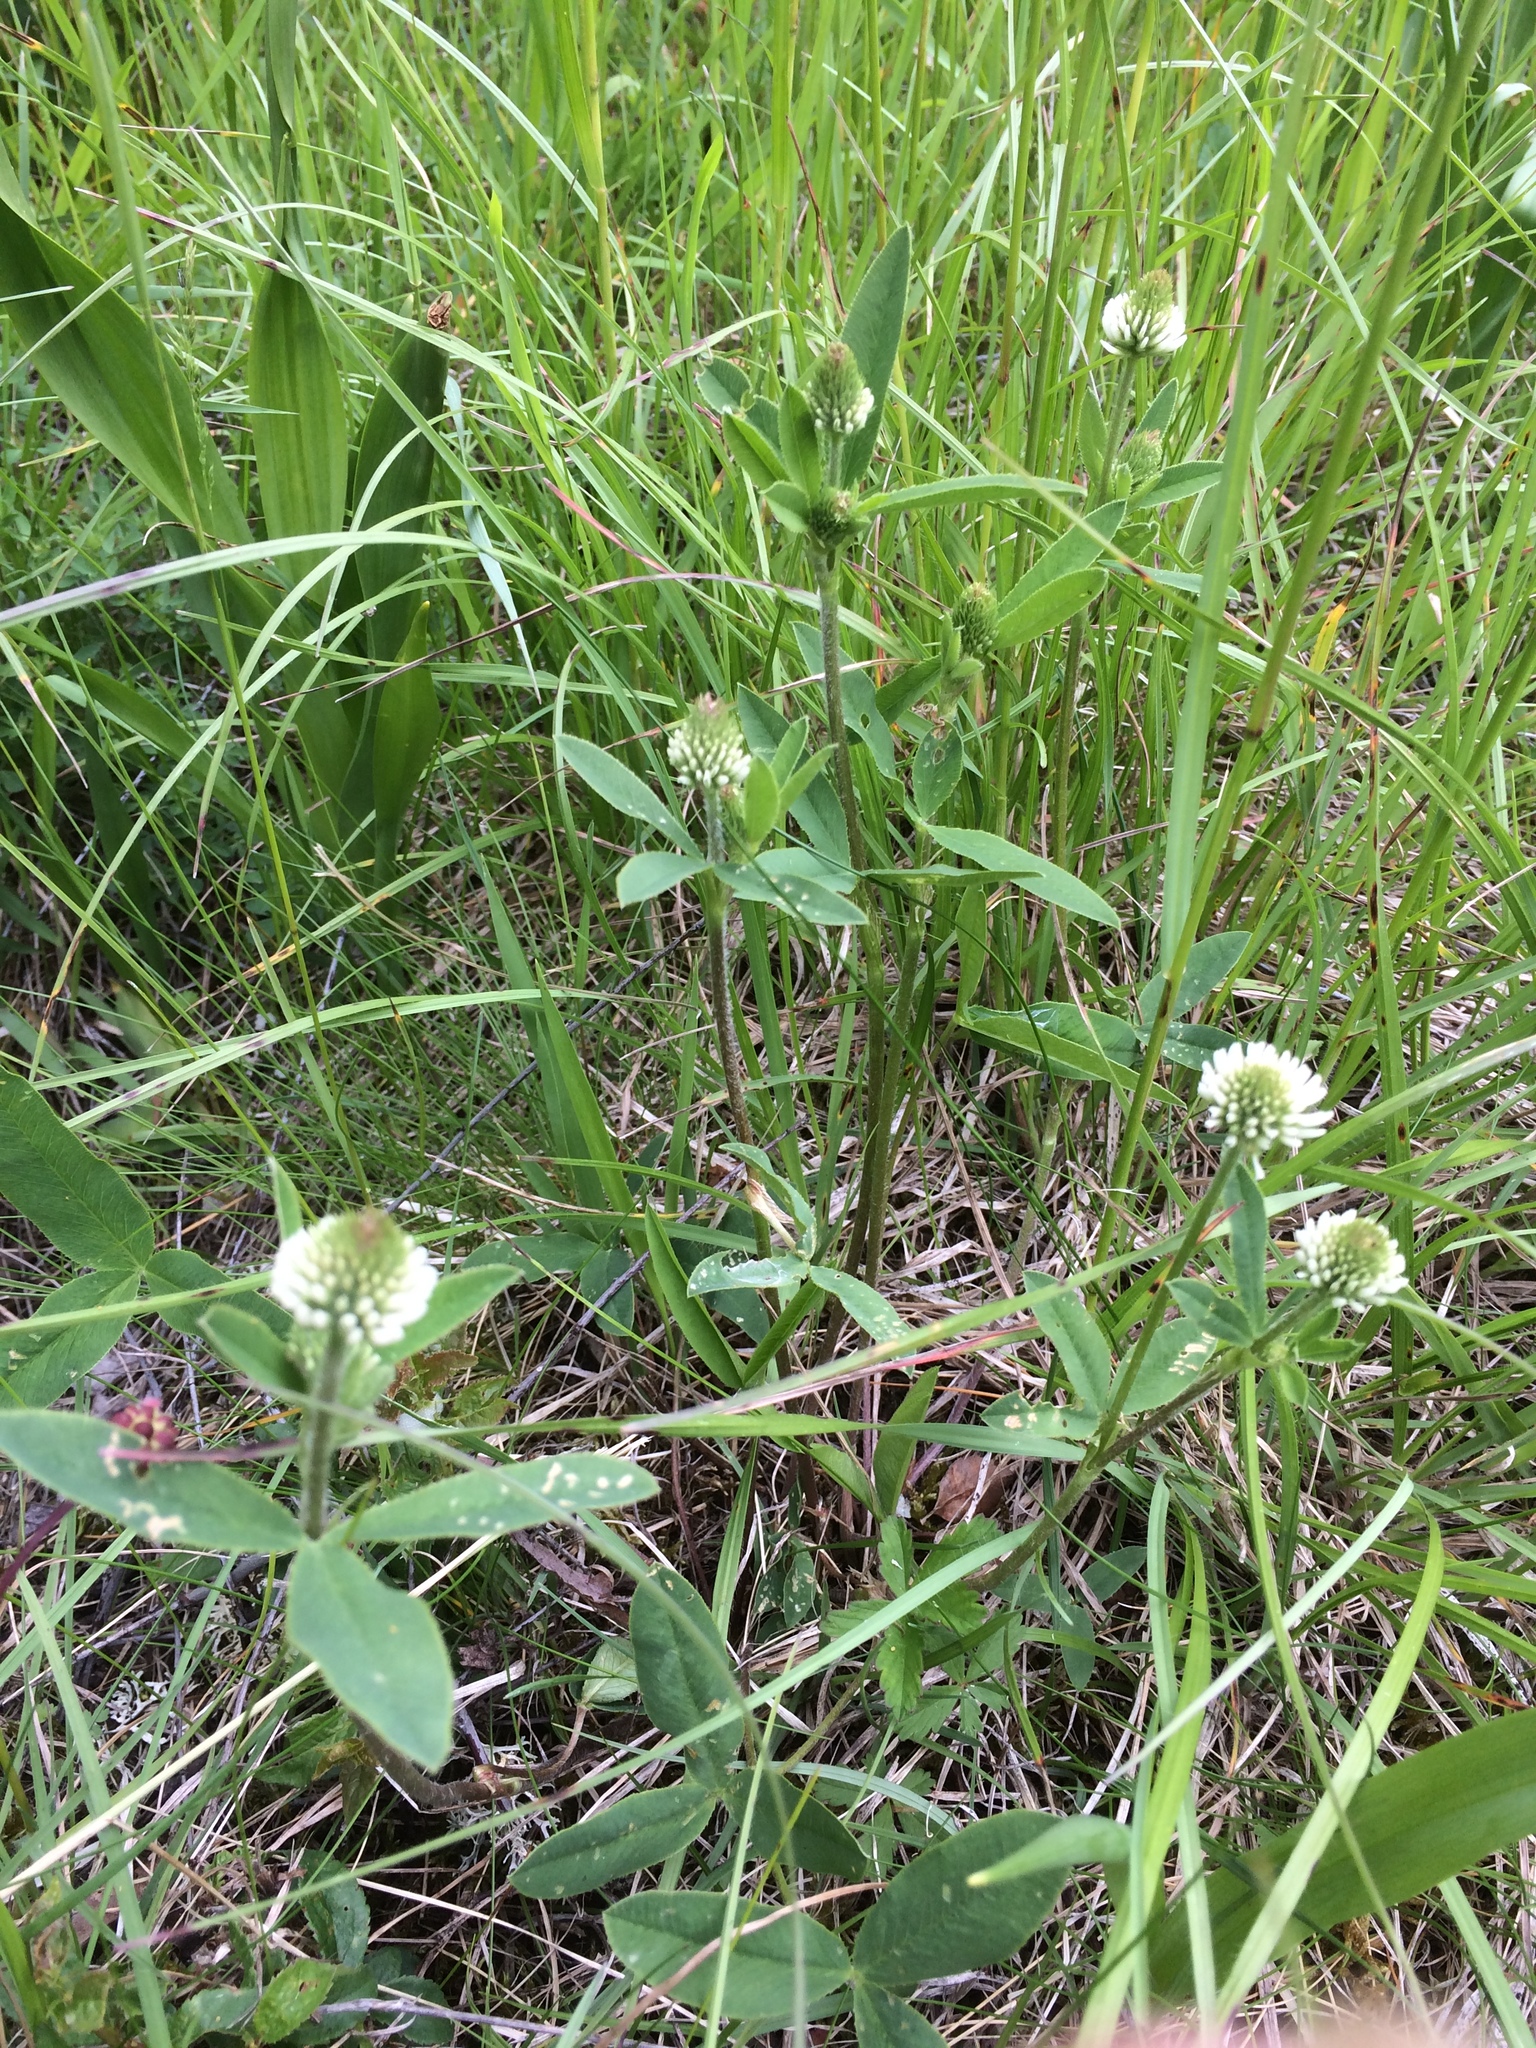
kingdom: Plantae
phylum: Tracheophyta
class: Magnoliopsida
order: Fabales
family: Fabaceae
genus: Trifolium
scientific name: Trifolium montanum
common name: Mountain clover
